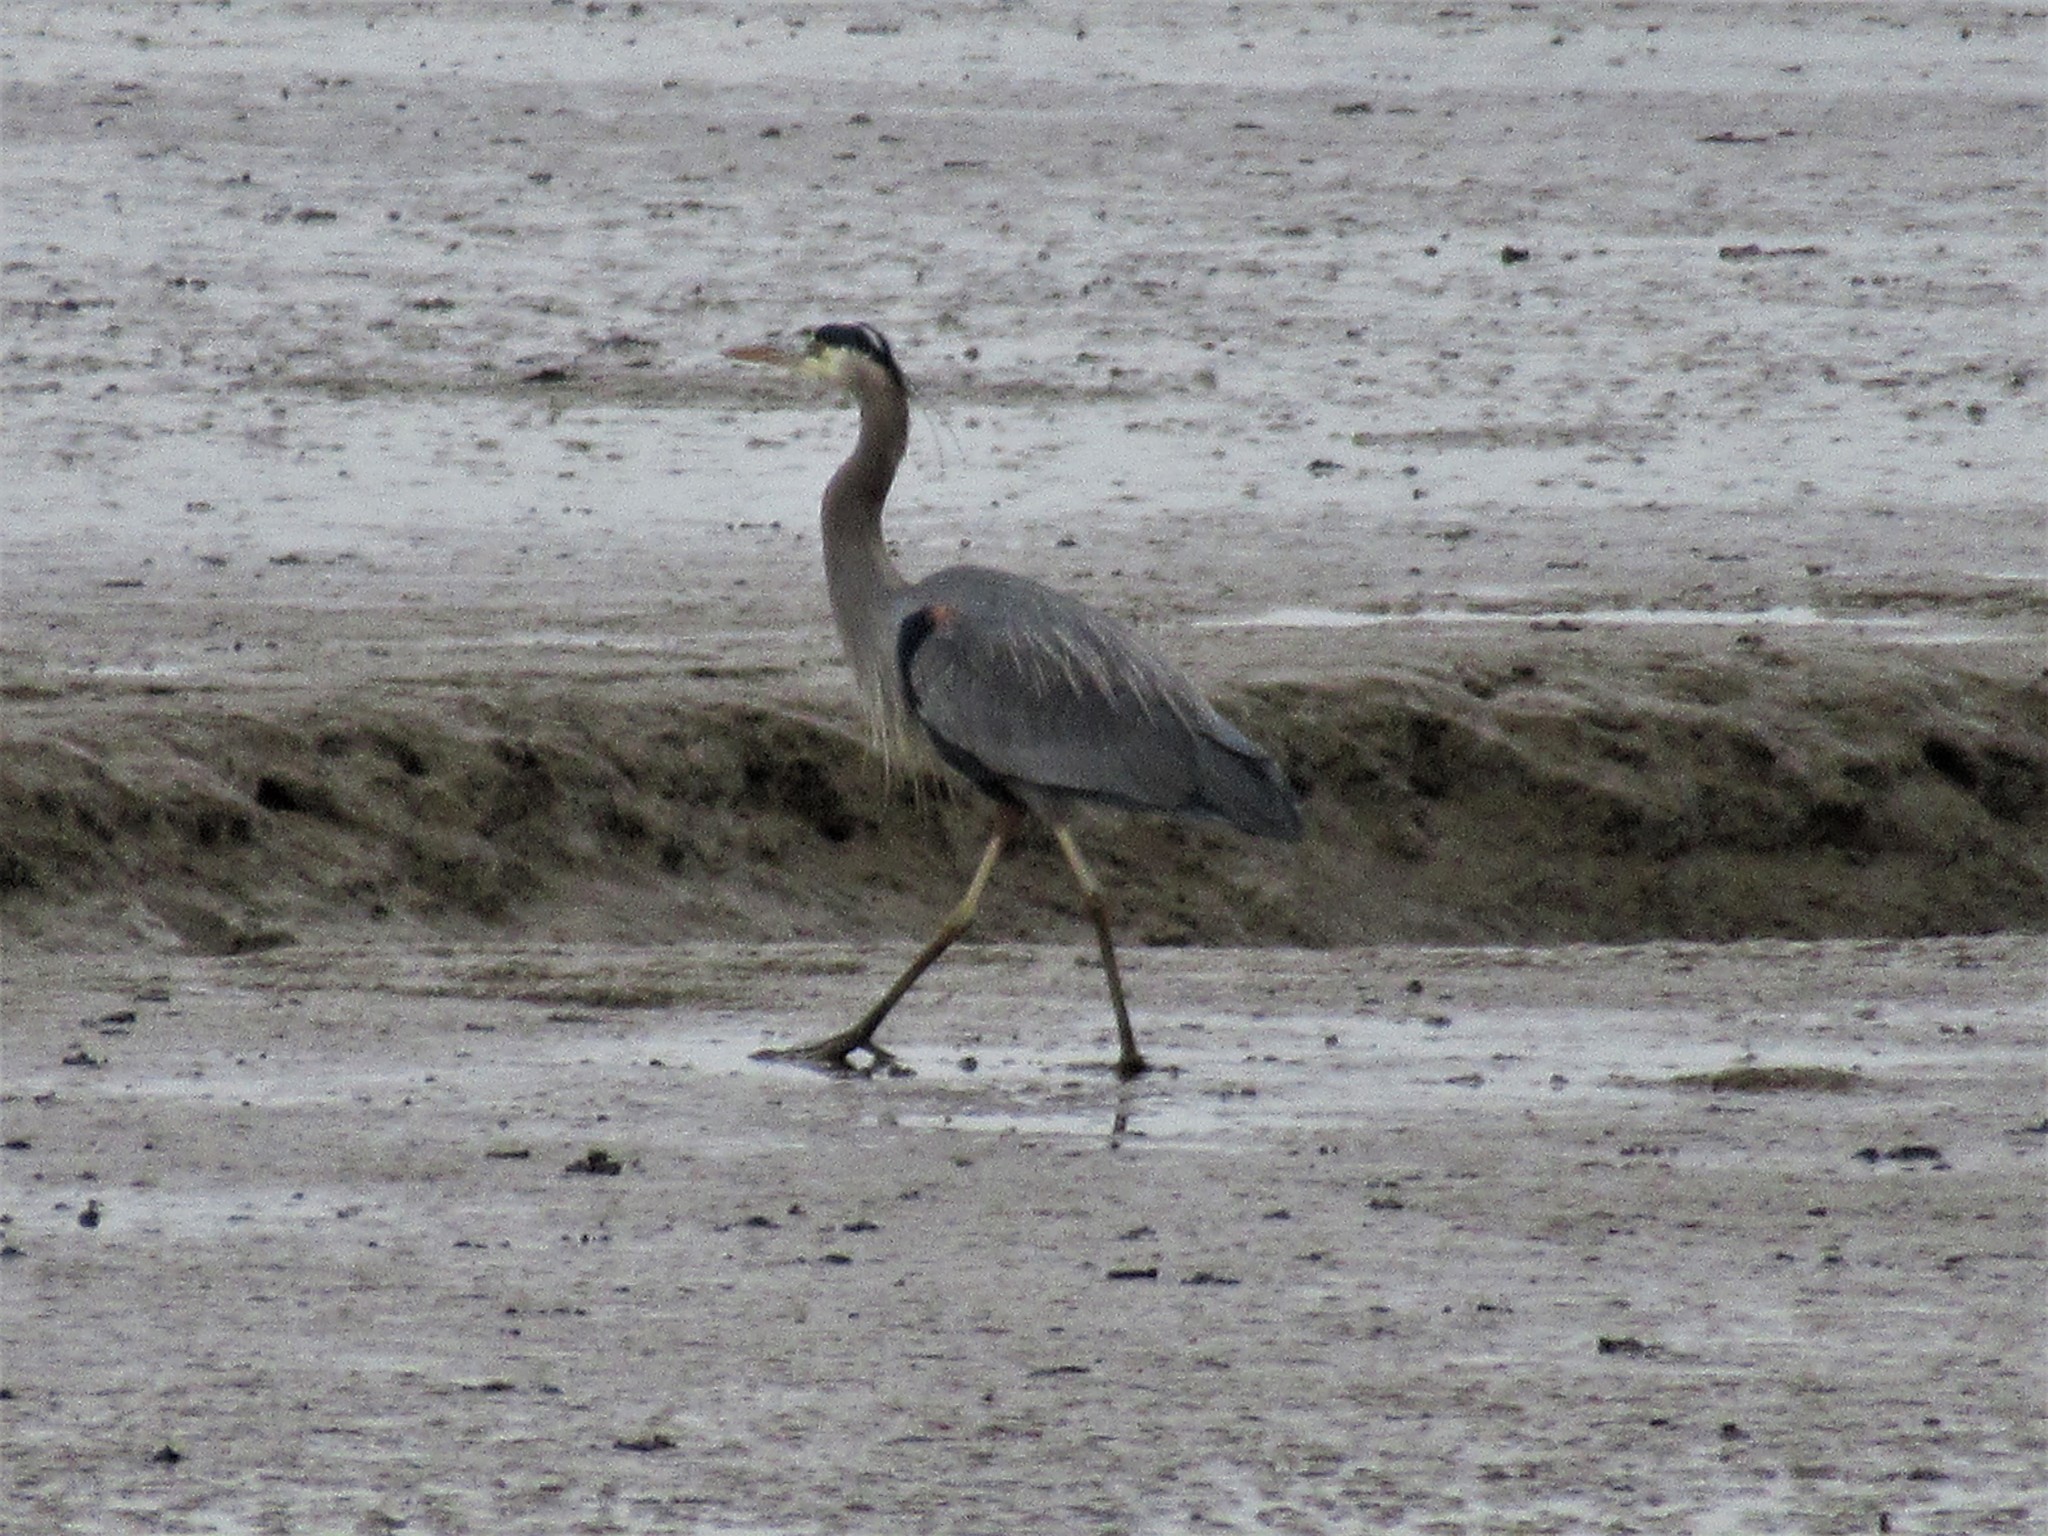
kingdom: Animalia
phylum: Chordata
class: Aves
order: Pelecaniformes
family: Ardeidae
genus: Ardea
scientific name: Ardea herodias
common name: Great blue heron
